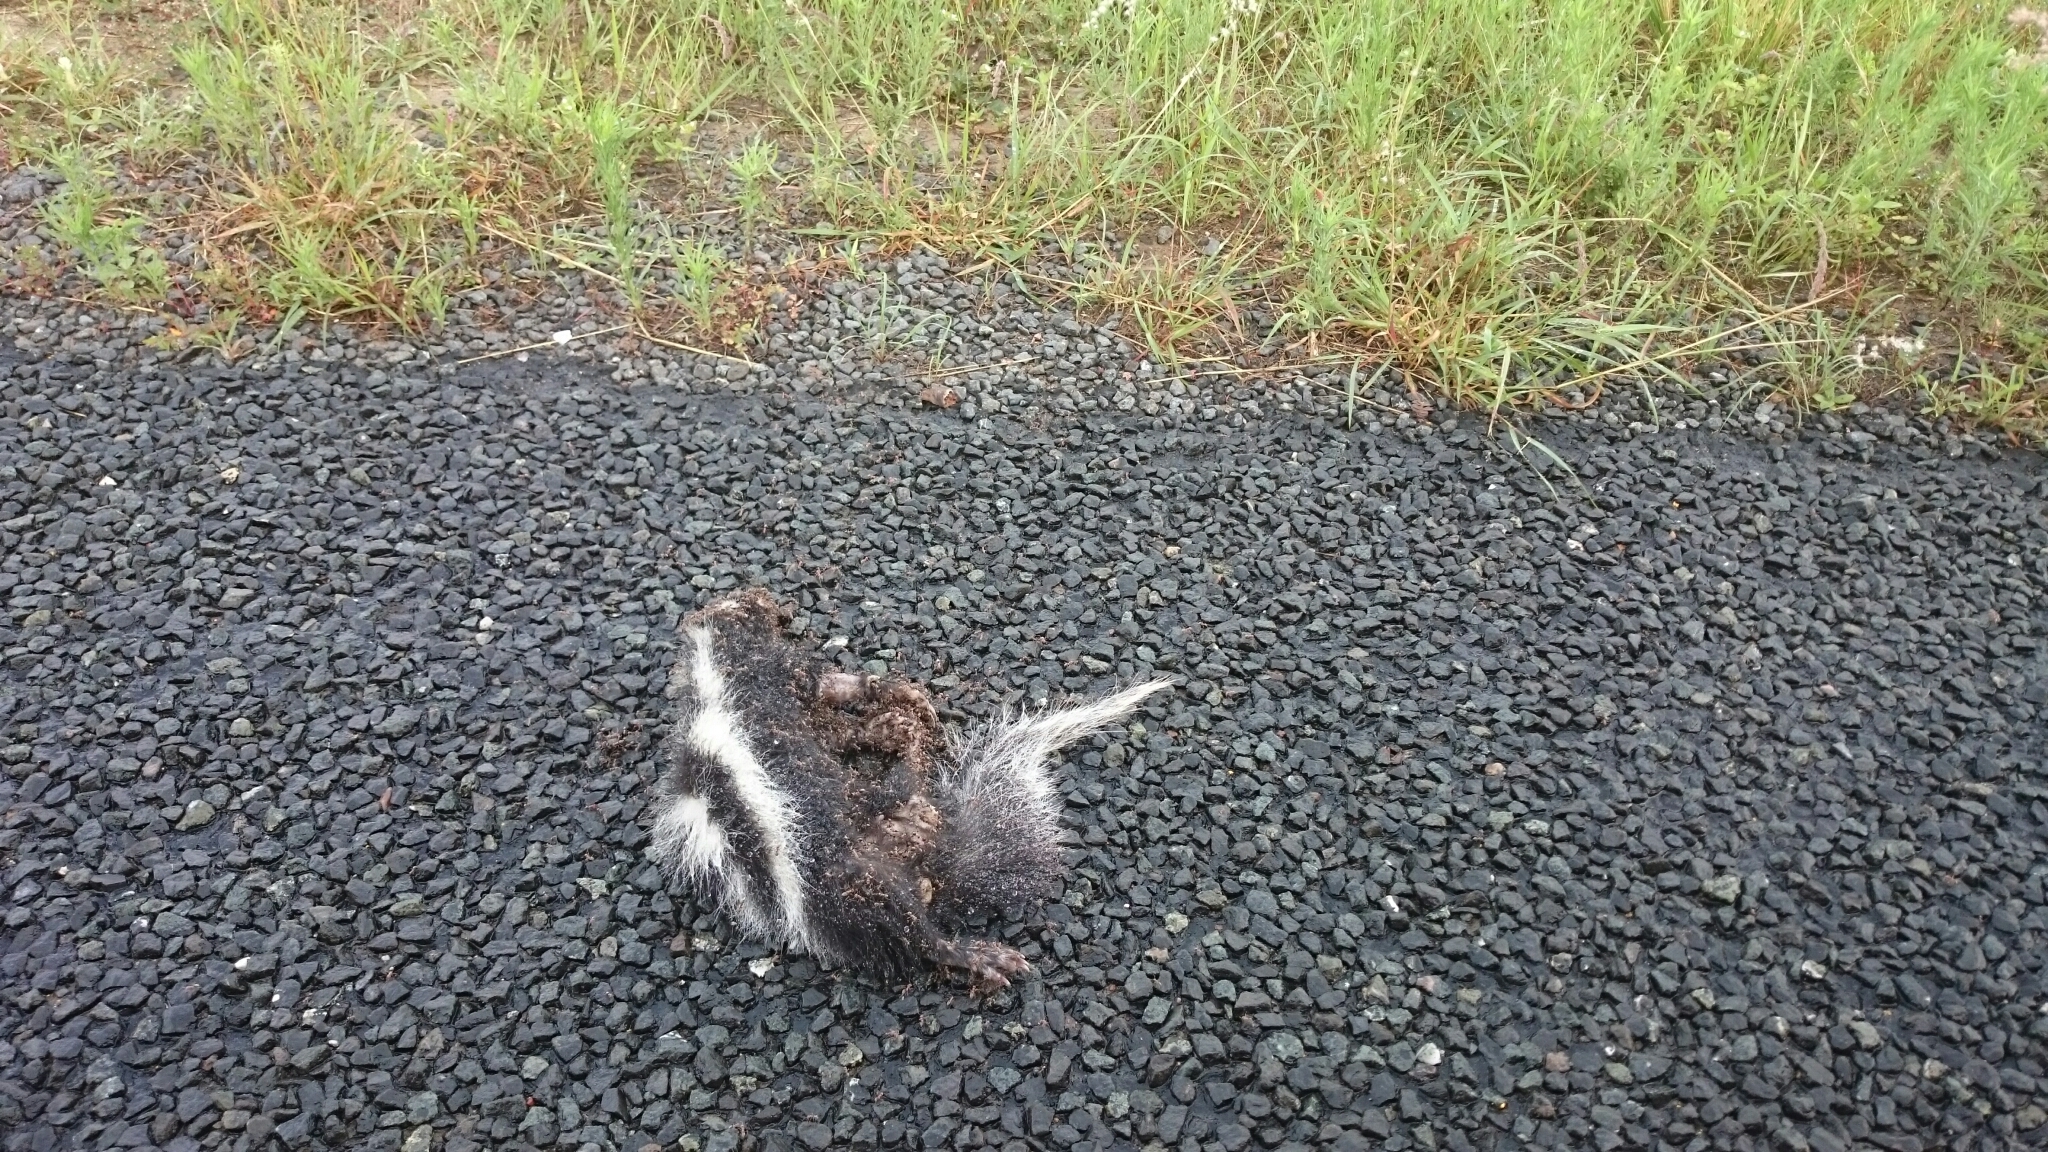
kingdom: Animalia
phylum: Chordata
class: Mammalia
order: Carnivora
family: Mustelidae
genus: Ictonyx
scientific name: Ictonyx striatus
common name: Striped polecat
